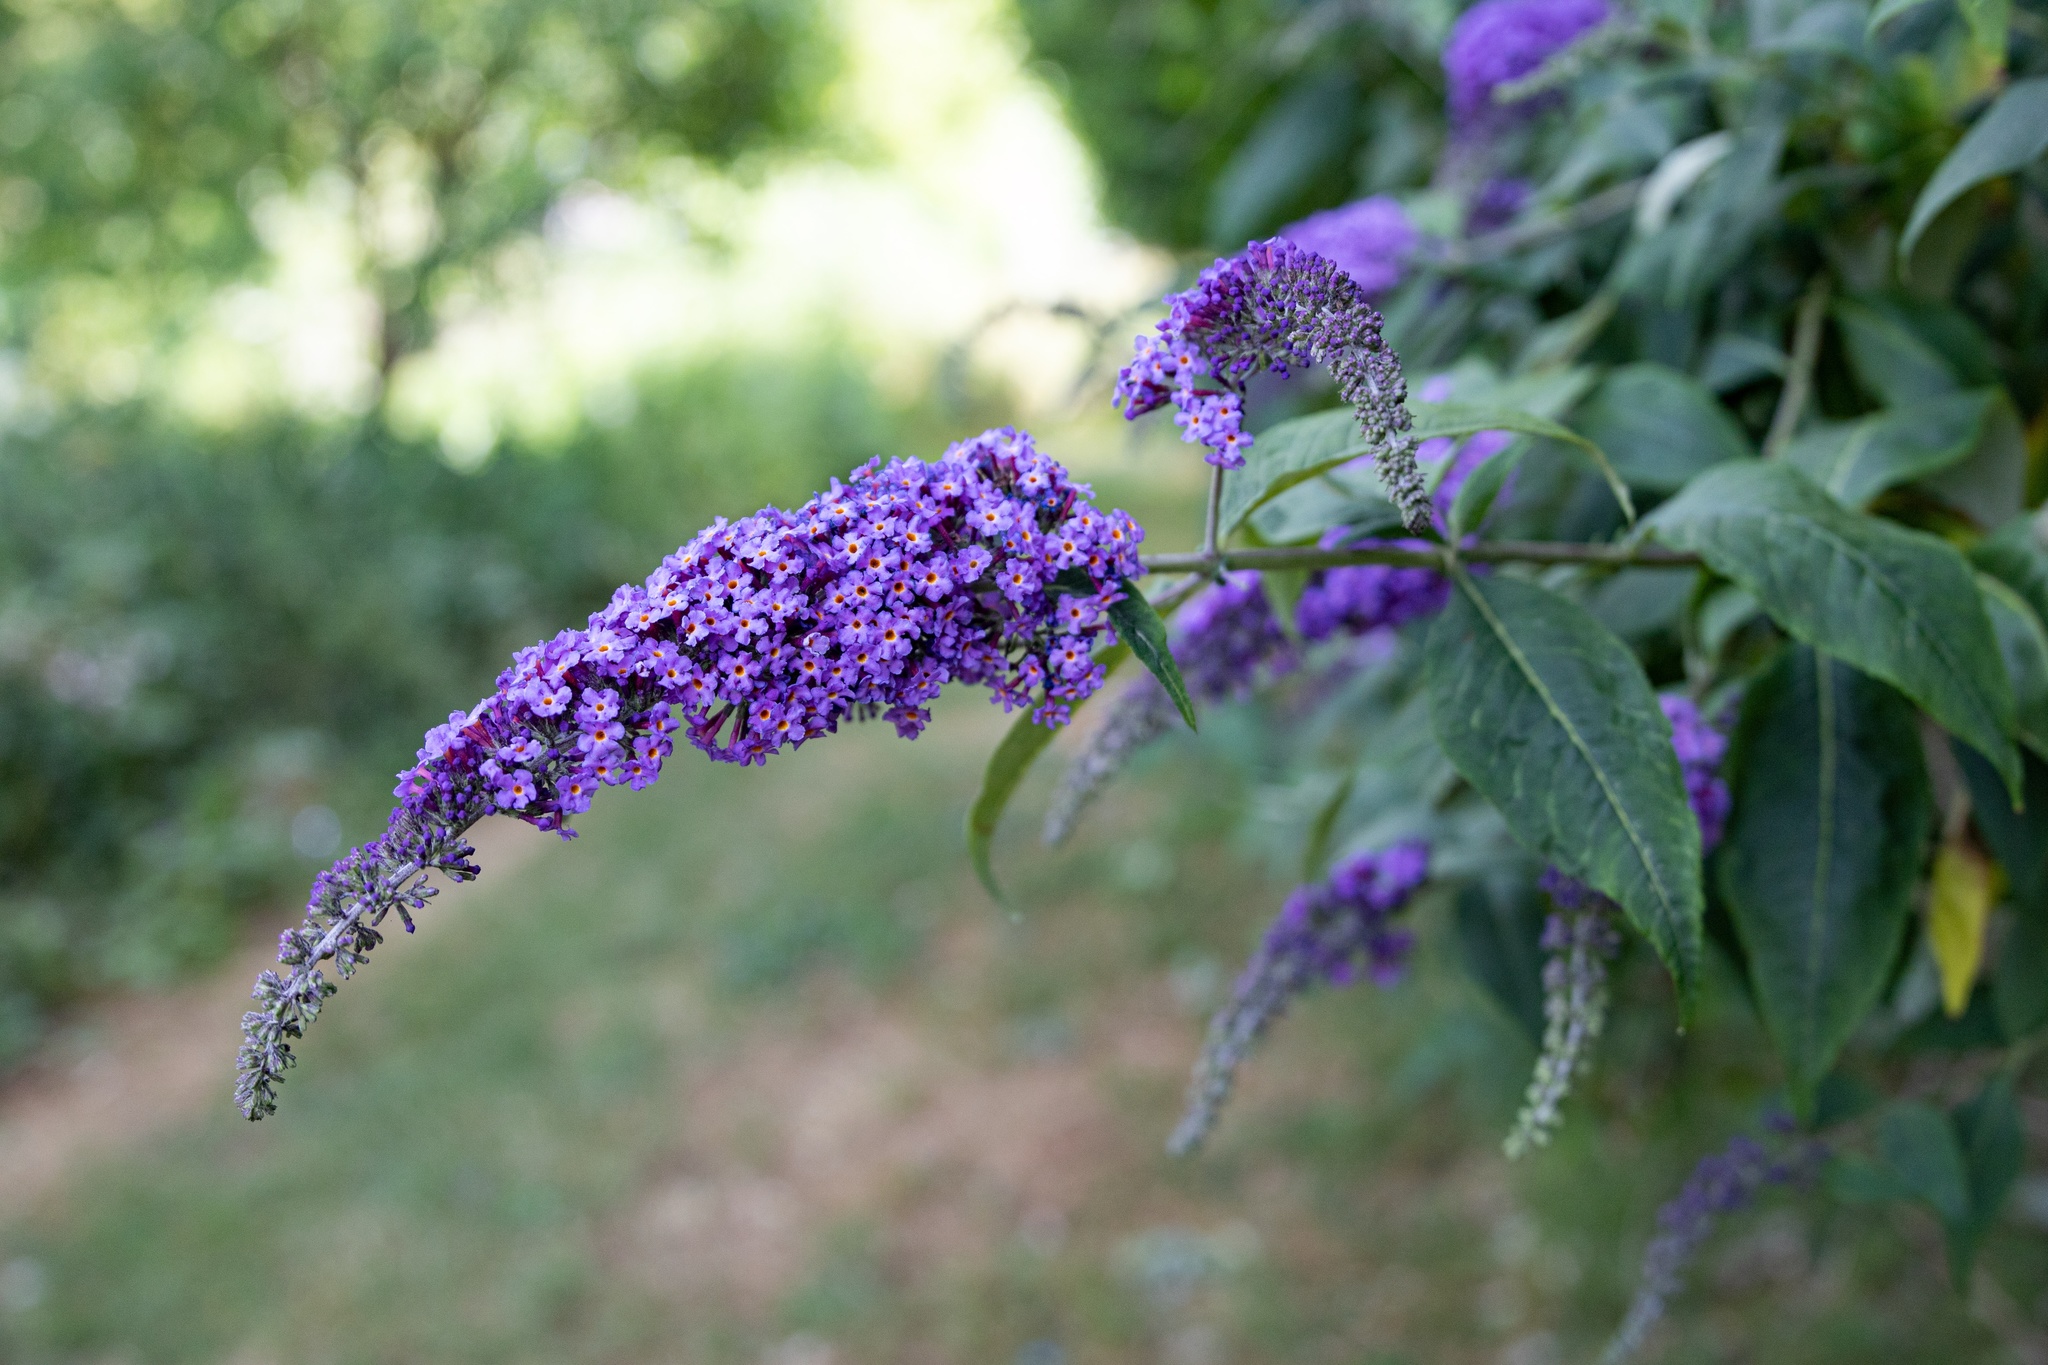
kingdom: Plantae
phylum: Tracheophyta
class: Magnoliopsida
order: Lamiales
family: Scrophulariaceae
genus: Buddleja
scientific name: Buddleja davidii
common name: Butterfly-bush
